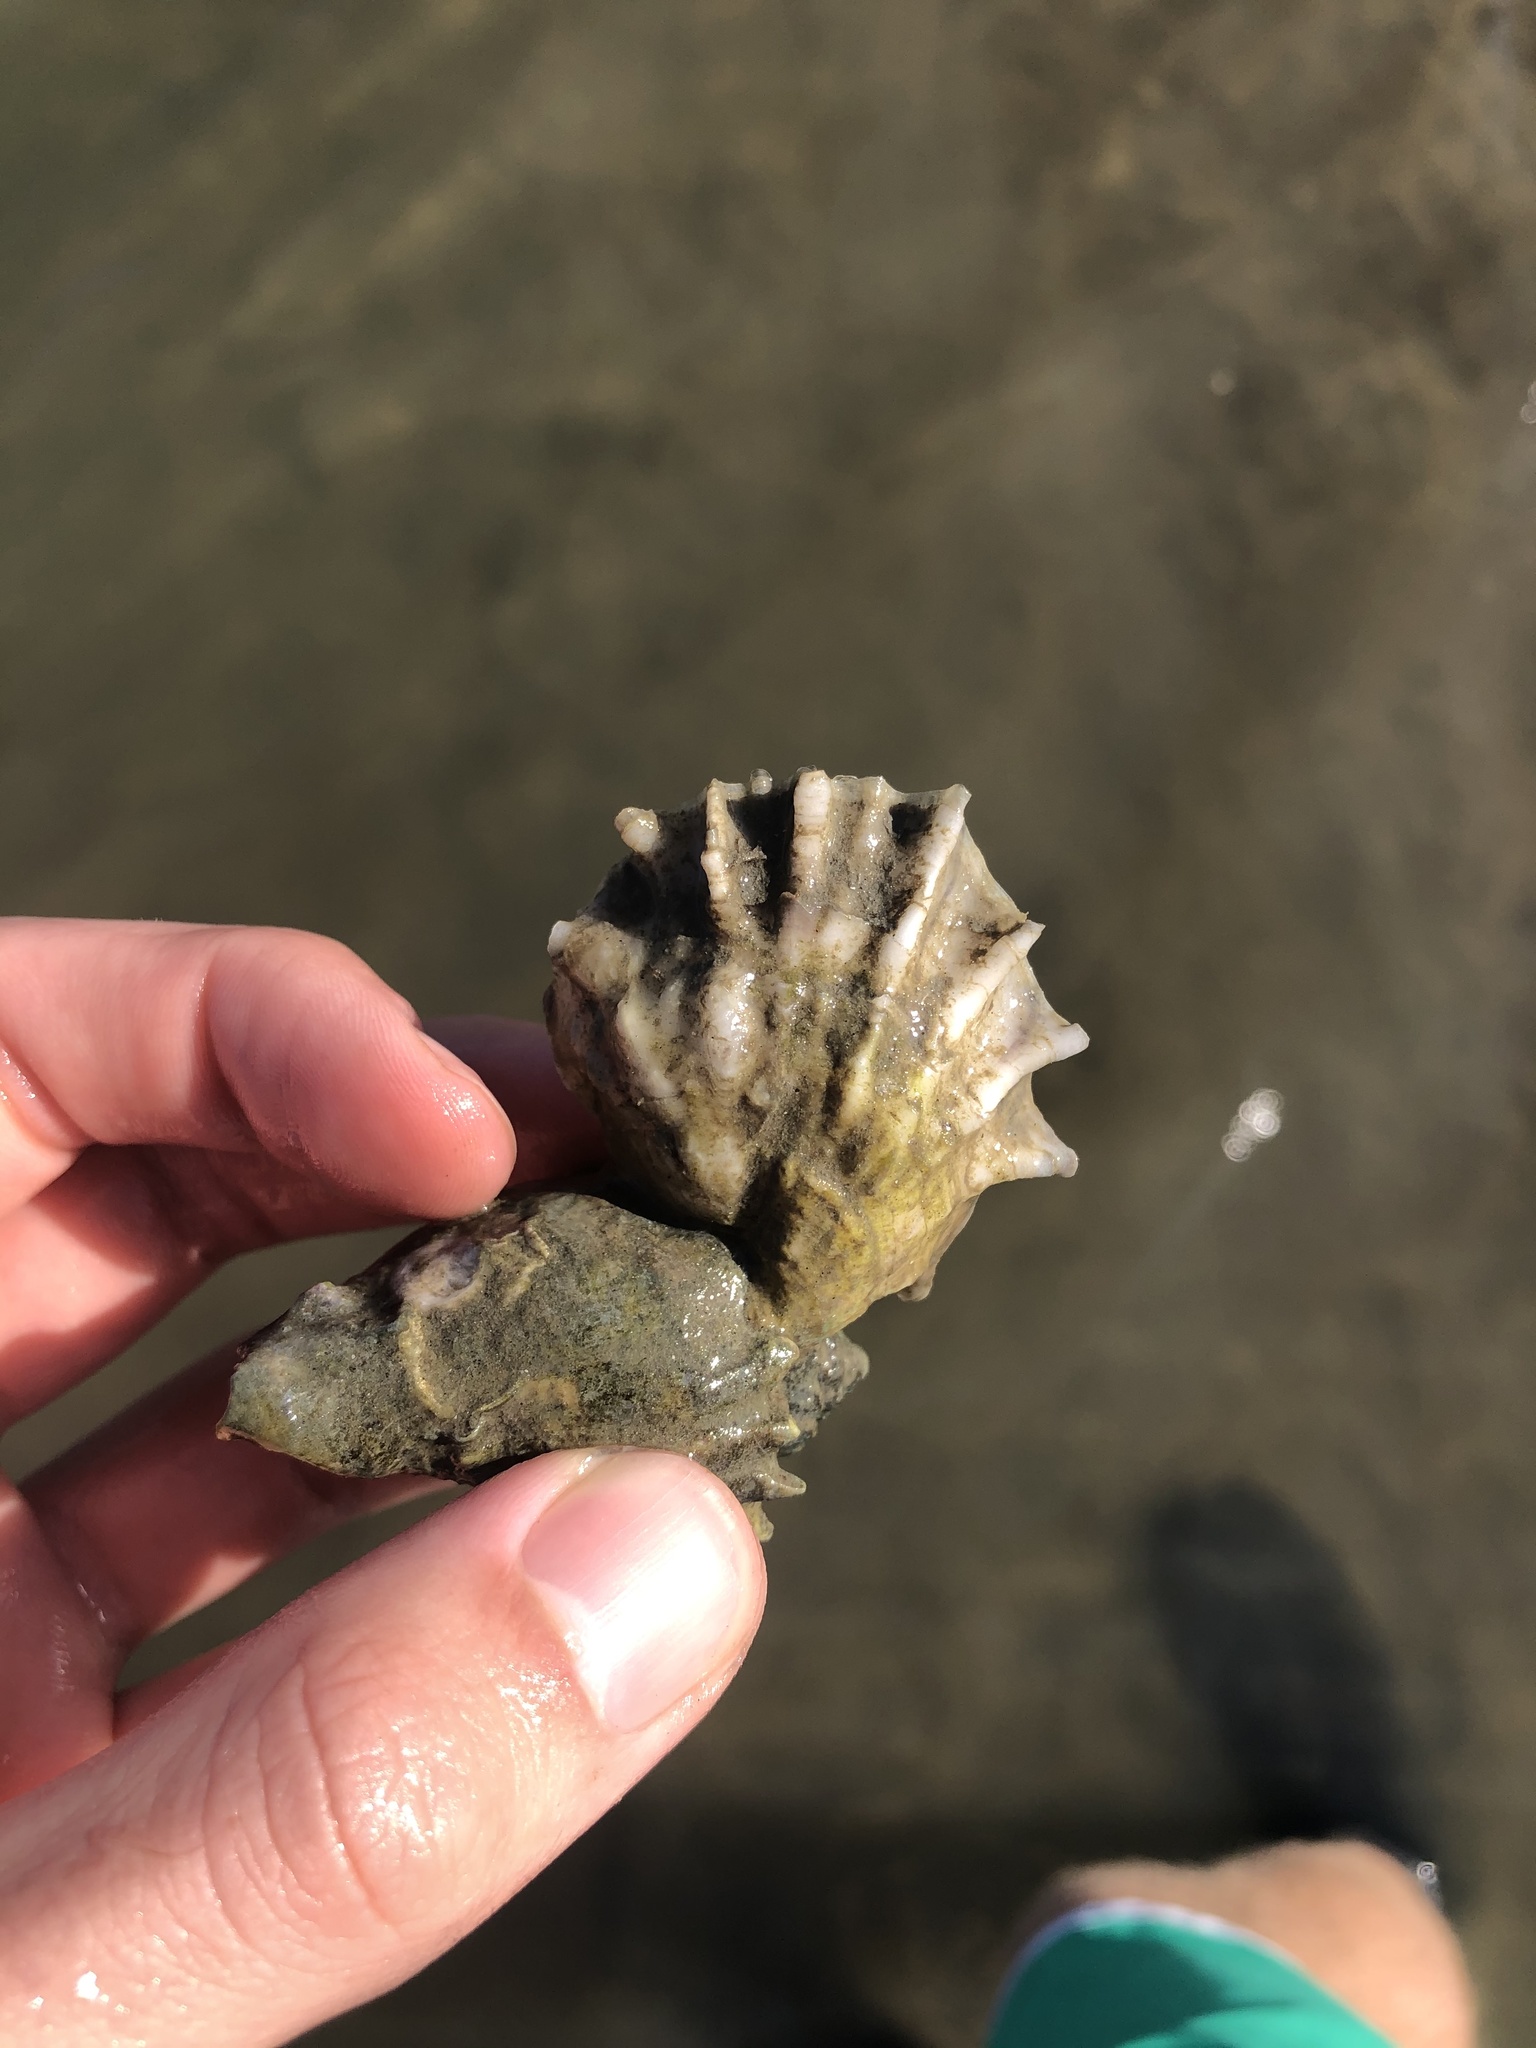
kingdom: Animalia
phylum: Mollusca
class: Bivalvia
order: Ostreida
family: Ostreidae
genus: Crassostrea
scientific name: Crassostrea virginica
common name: American oyster
